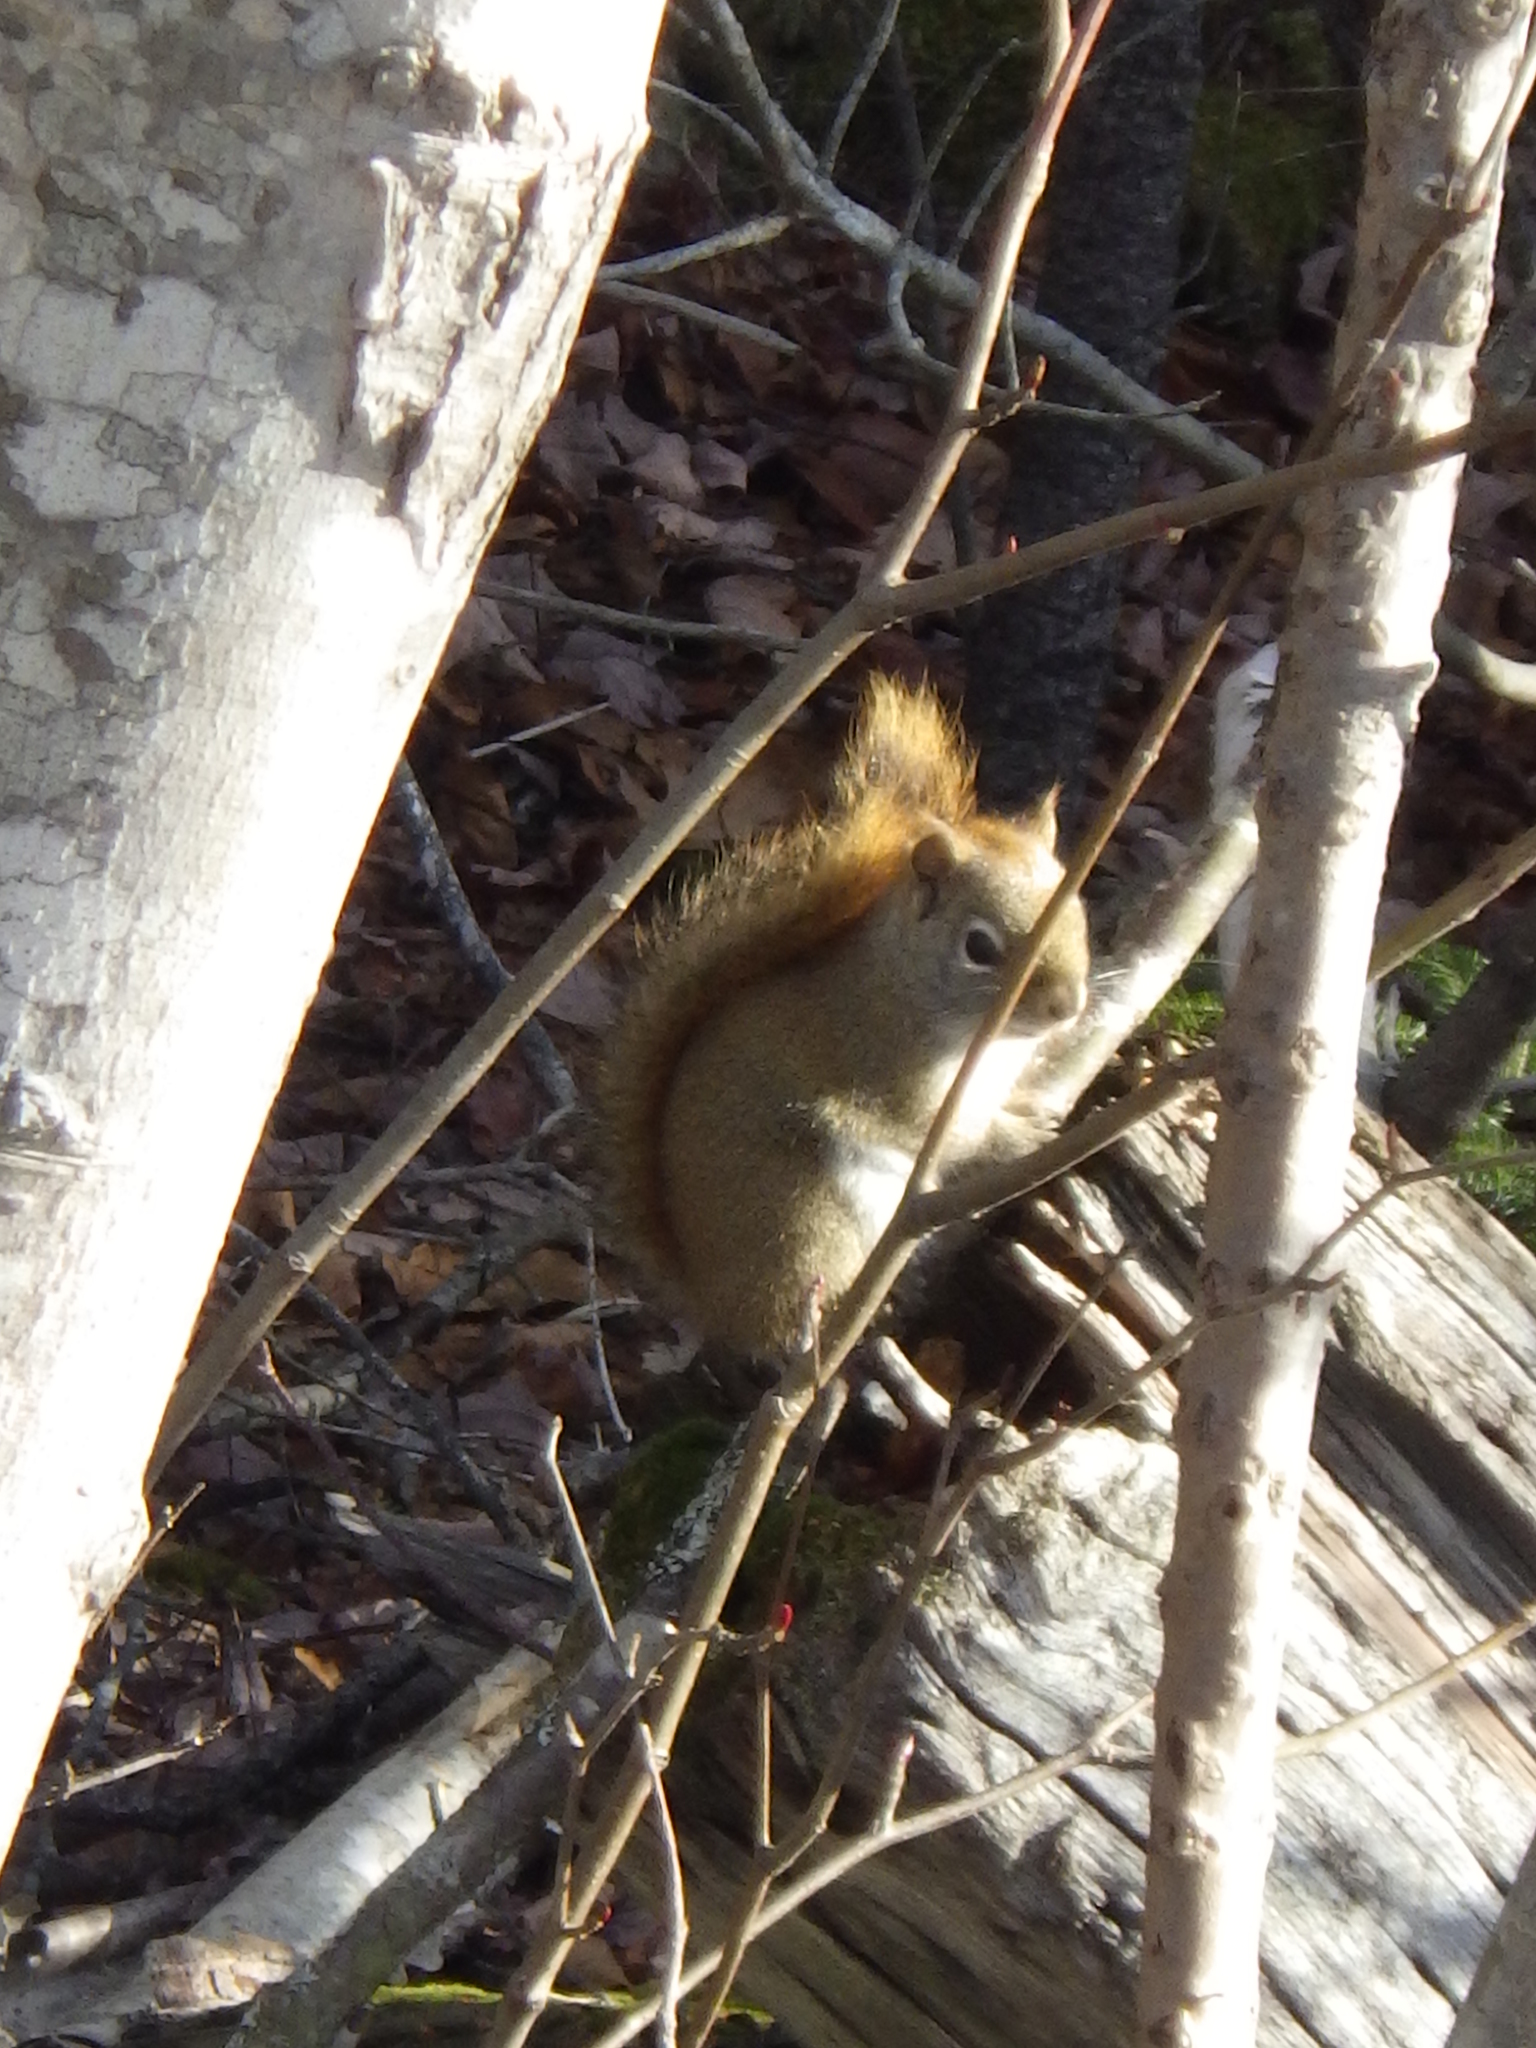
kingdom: Animalia
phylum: Chordata
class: Mammalia
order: Rodentia
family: Sciuridae
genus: Tamiasciurus
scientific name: Tamiasciurus hudsonicus
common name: Red squirrel
